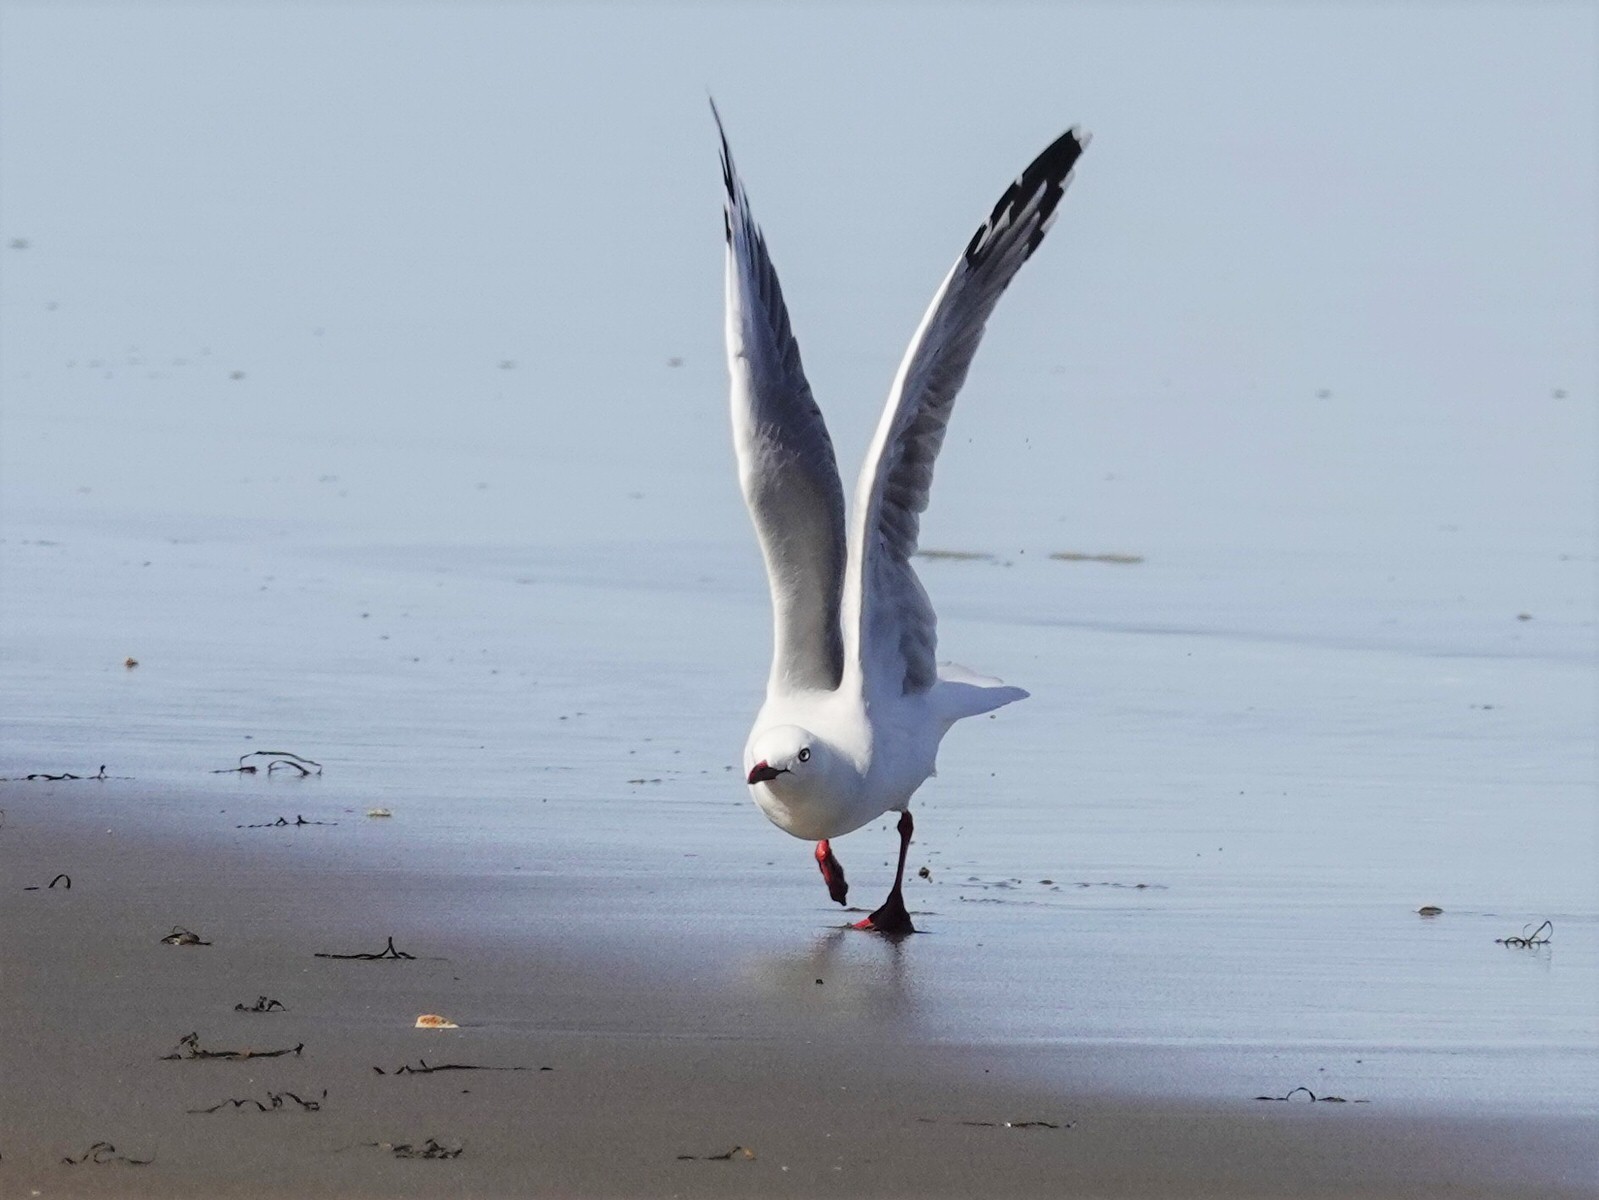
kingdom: Animalia
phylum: Chordata
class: Aves
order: Charadriiformes
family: Laridae
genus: Chroicocephalus
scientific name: Chroicocephalus novaehollandiae
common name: Silver gull
